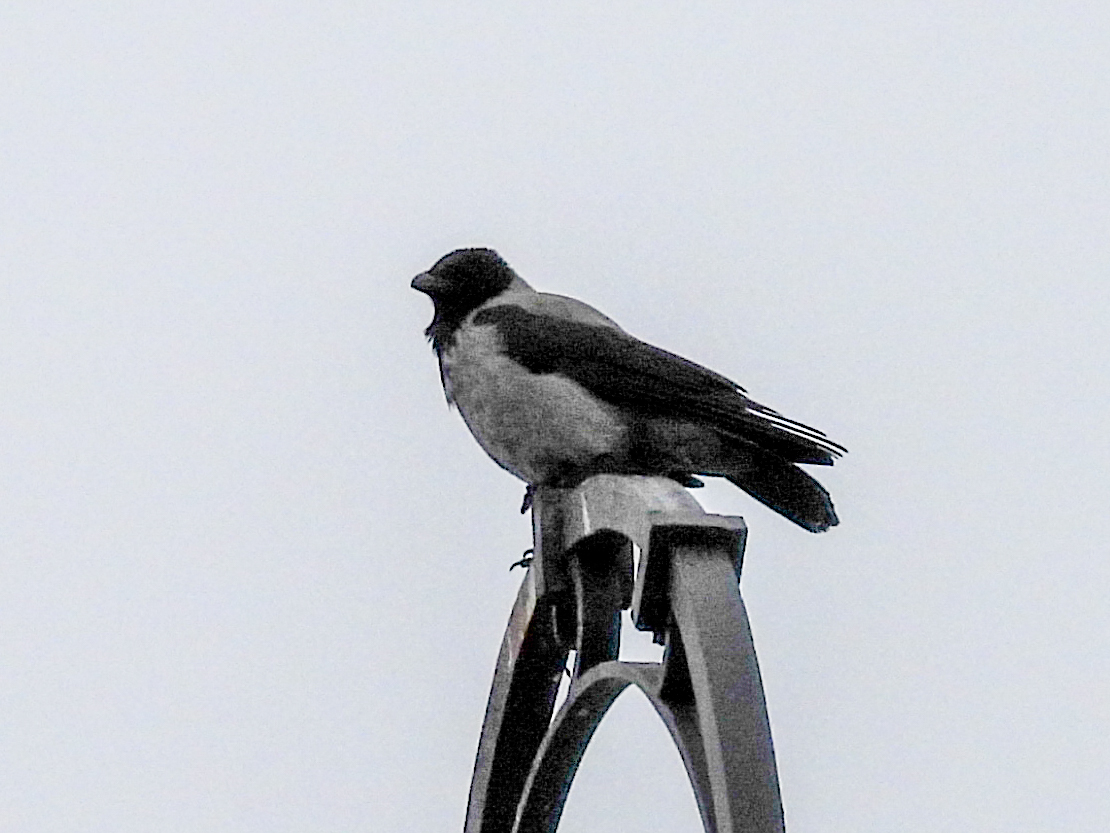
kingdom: Animalia
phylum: Chordata
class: Aves
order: Passeriformes
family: Corvidae
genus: Corvus
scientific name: Corvus cornix
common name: Hooded crow
